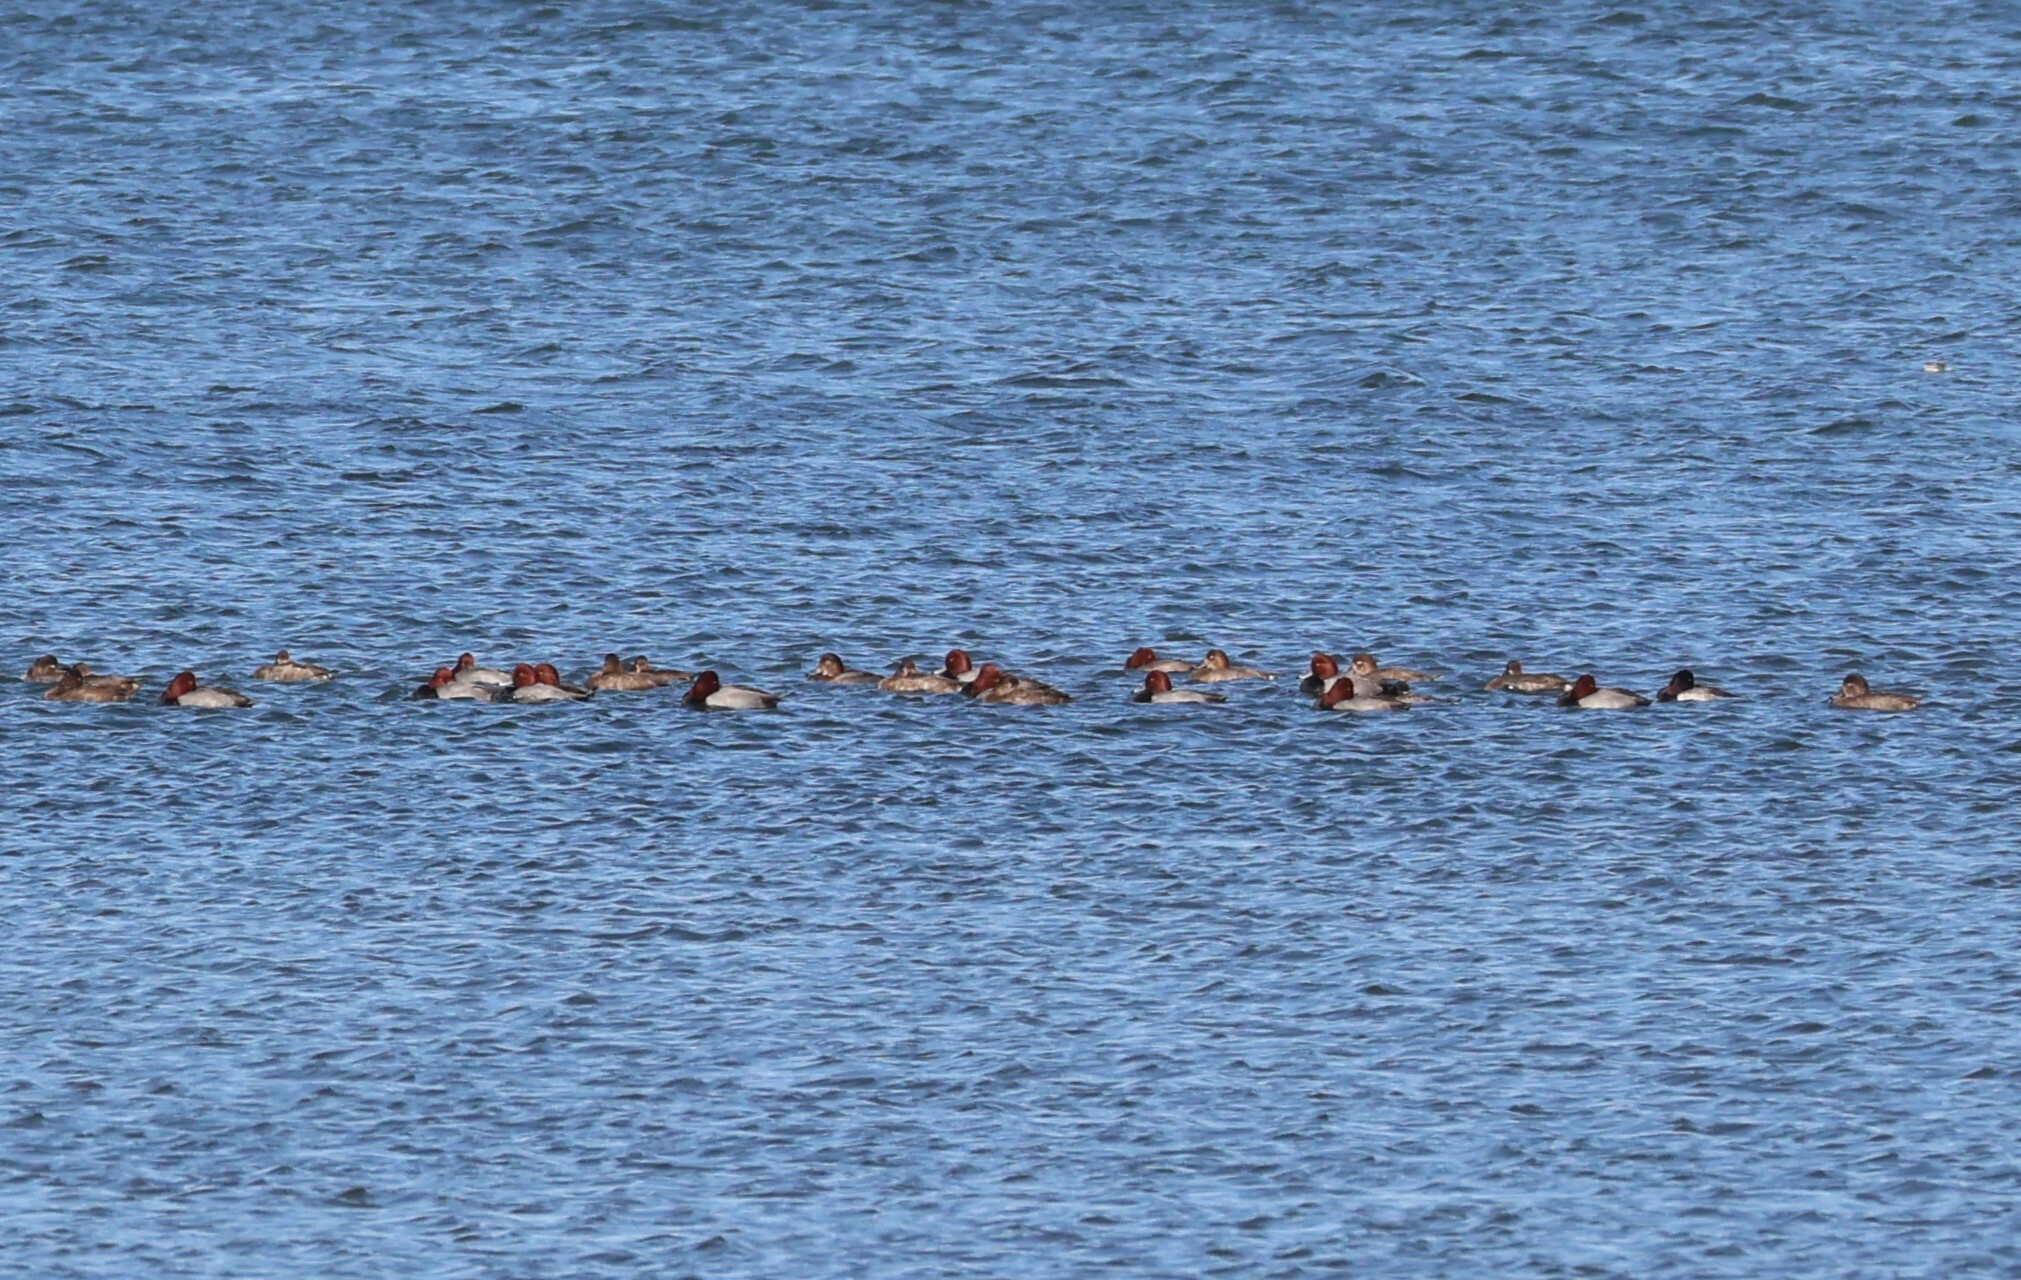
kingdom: Animalia
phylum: Chordata
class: Aves
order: Anseriformes
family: Anatidae
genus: Aythya
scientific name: Aythya americana
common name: Redhead
